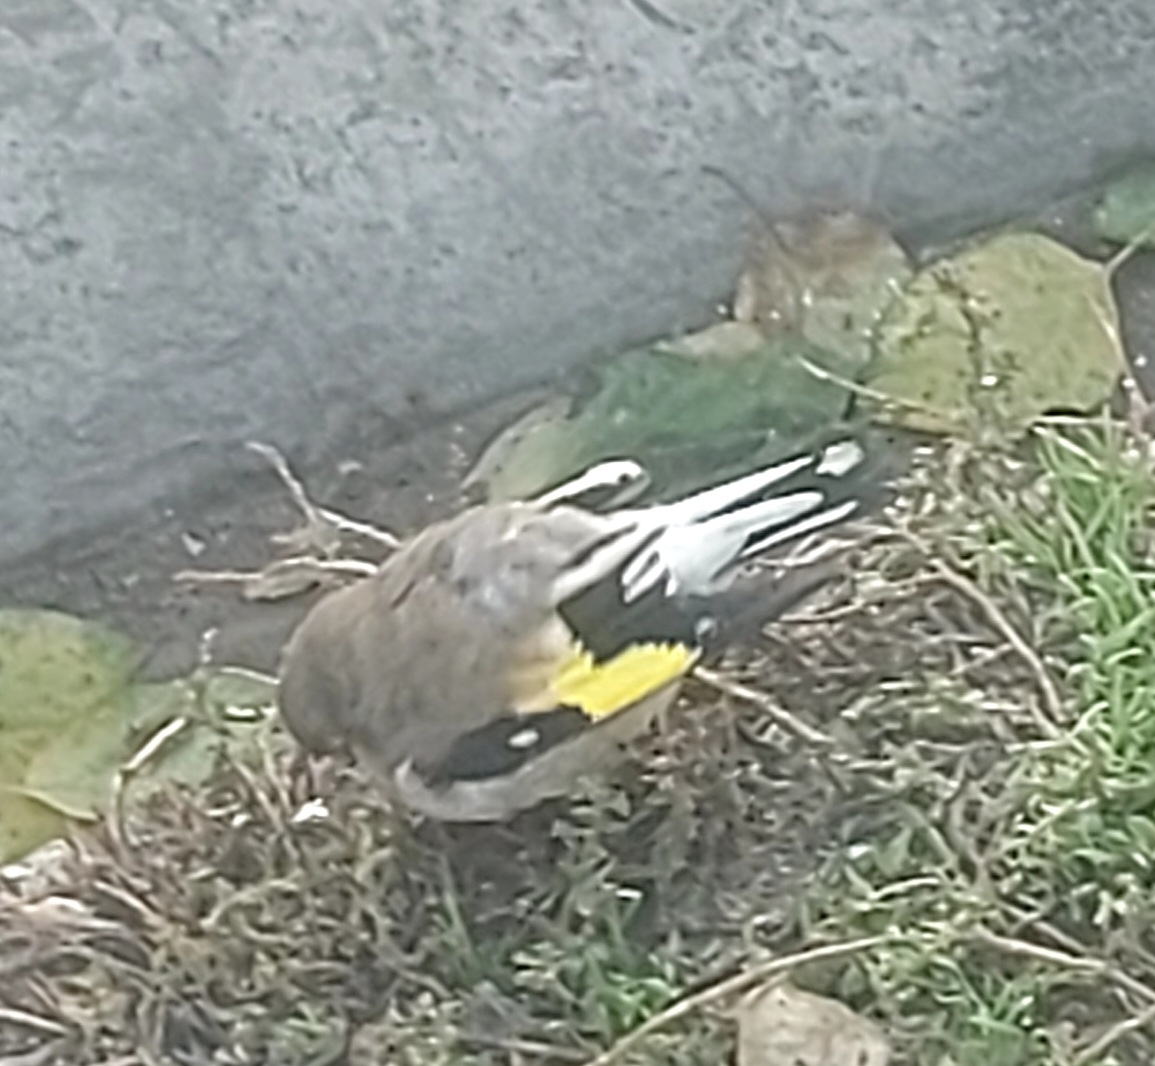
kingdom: Animalia
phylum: Chordata
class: Aves
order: Passeriformes
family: Fringillidae
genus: Carduelis
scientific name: Carduelis carduelis
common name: European goldfinch
